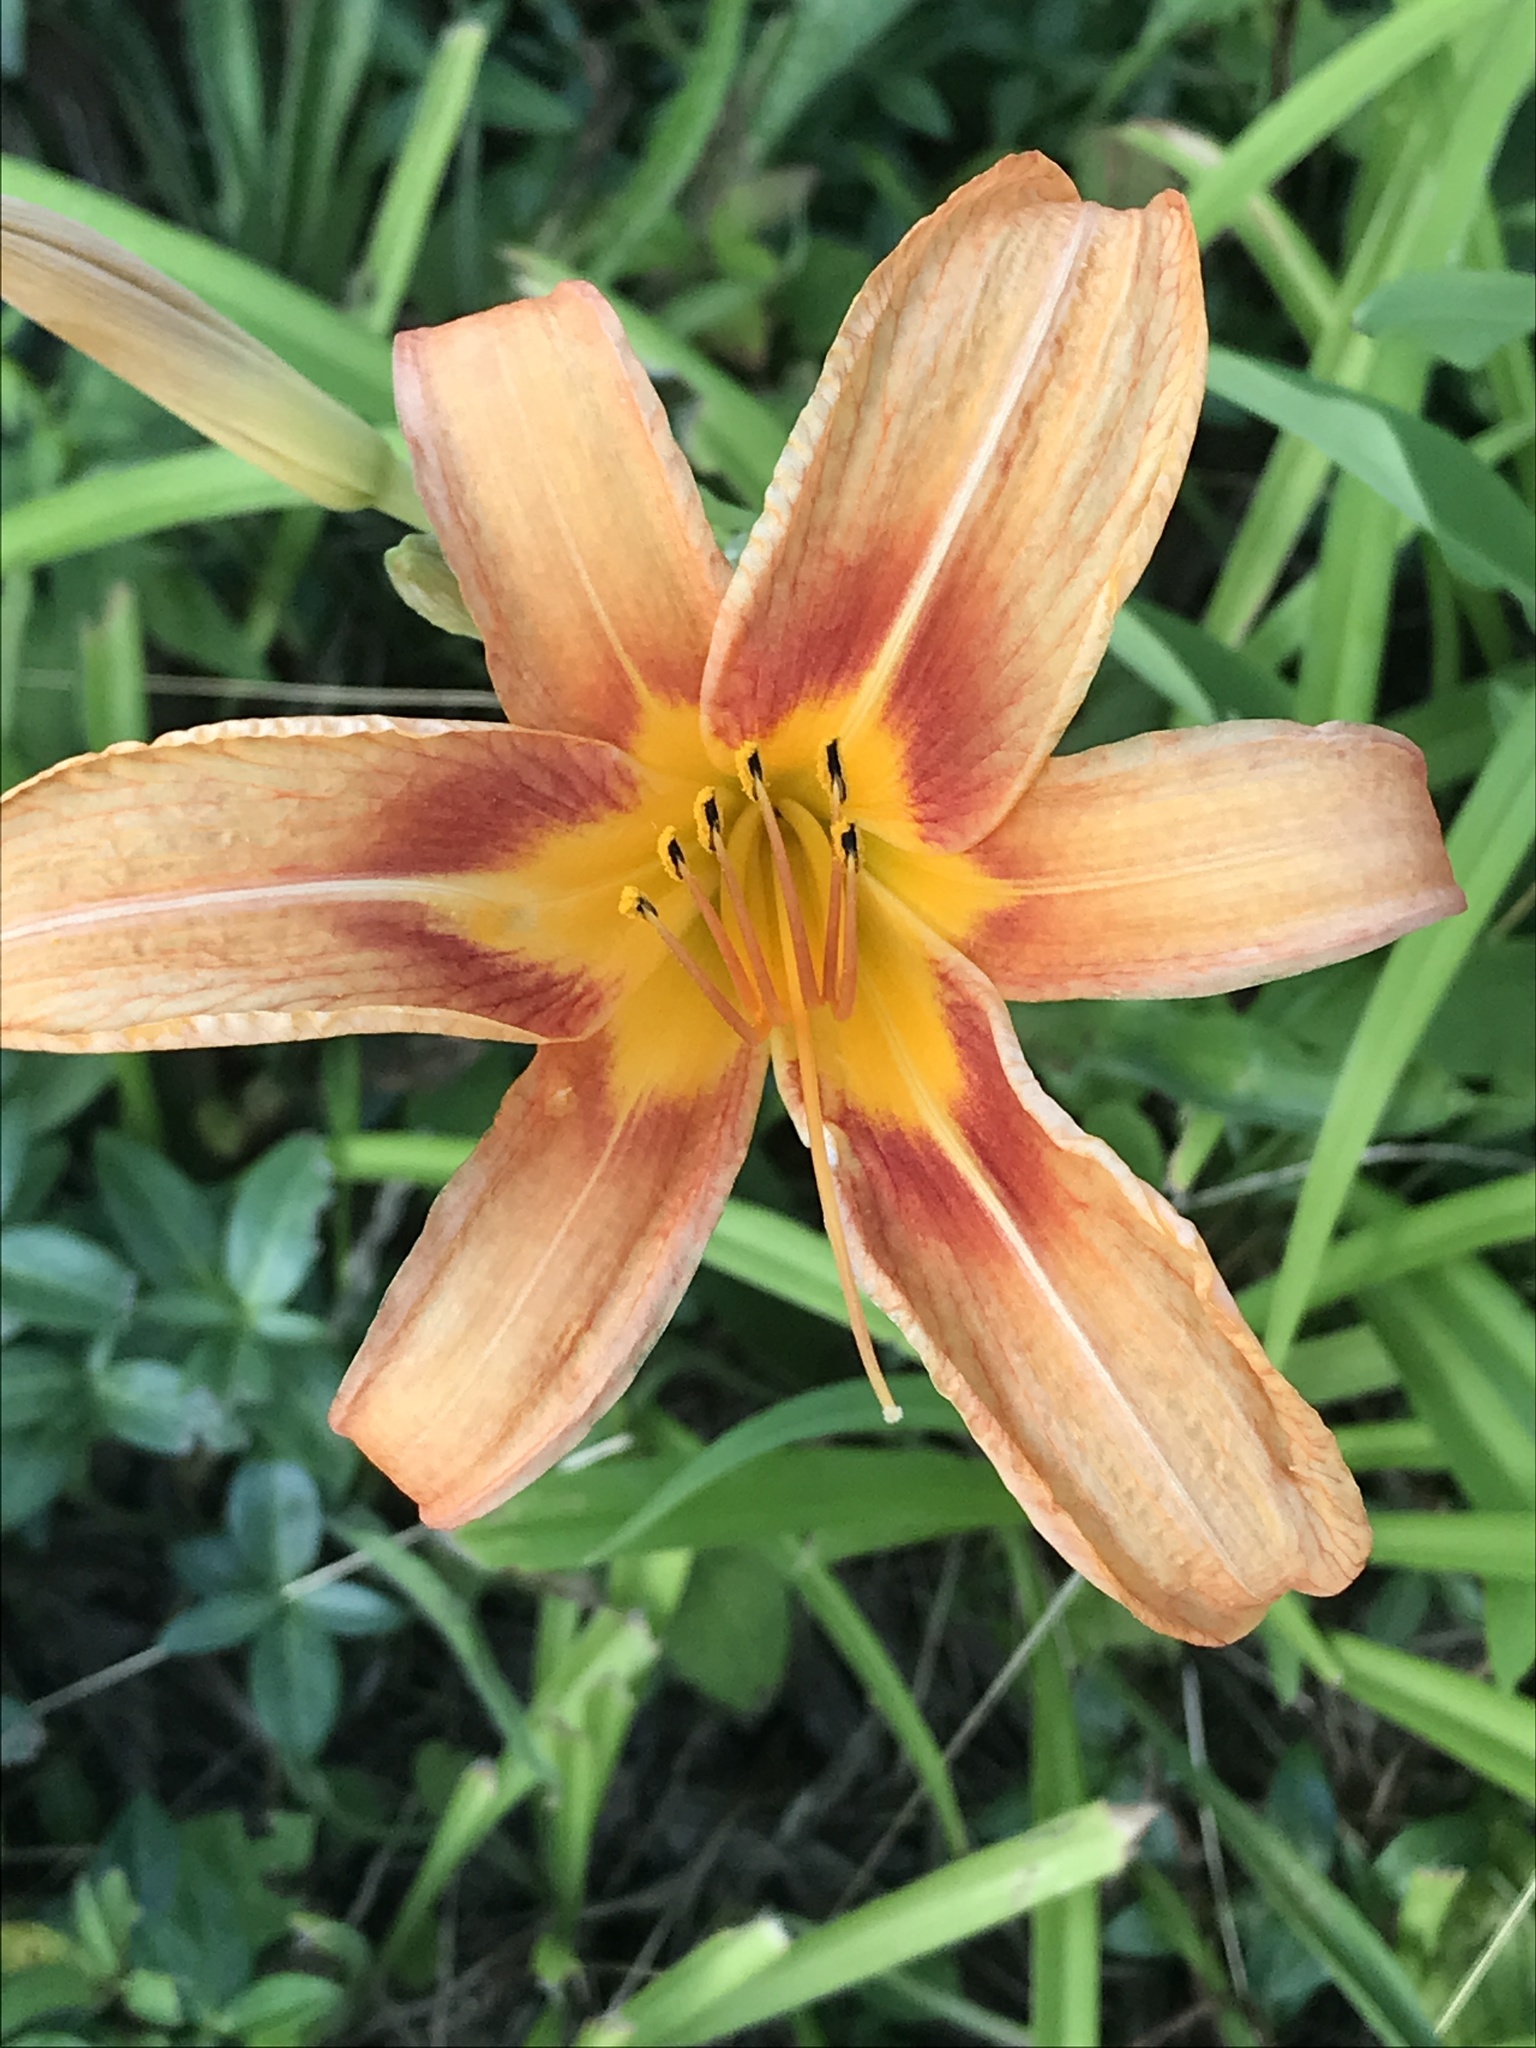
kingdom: Plantae
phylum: Tracheophyta
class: Liliopsida
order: Asparagales
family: Asphodelaceae
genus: Hemerocallis
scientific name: Hemerocallis fulva
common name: Orange day-lily
